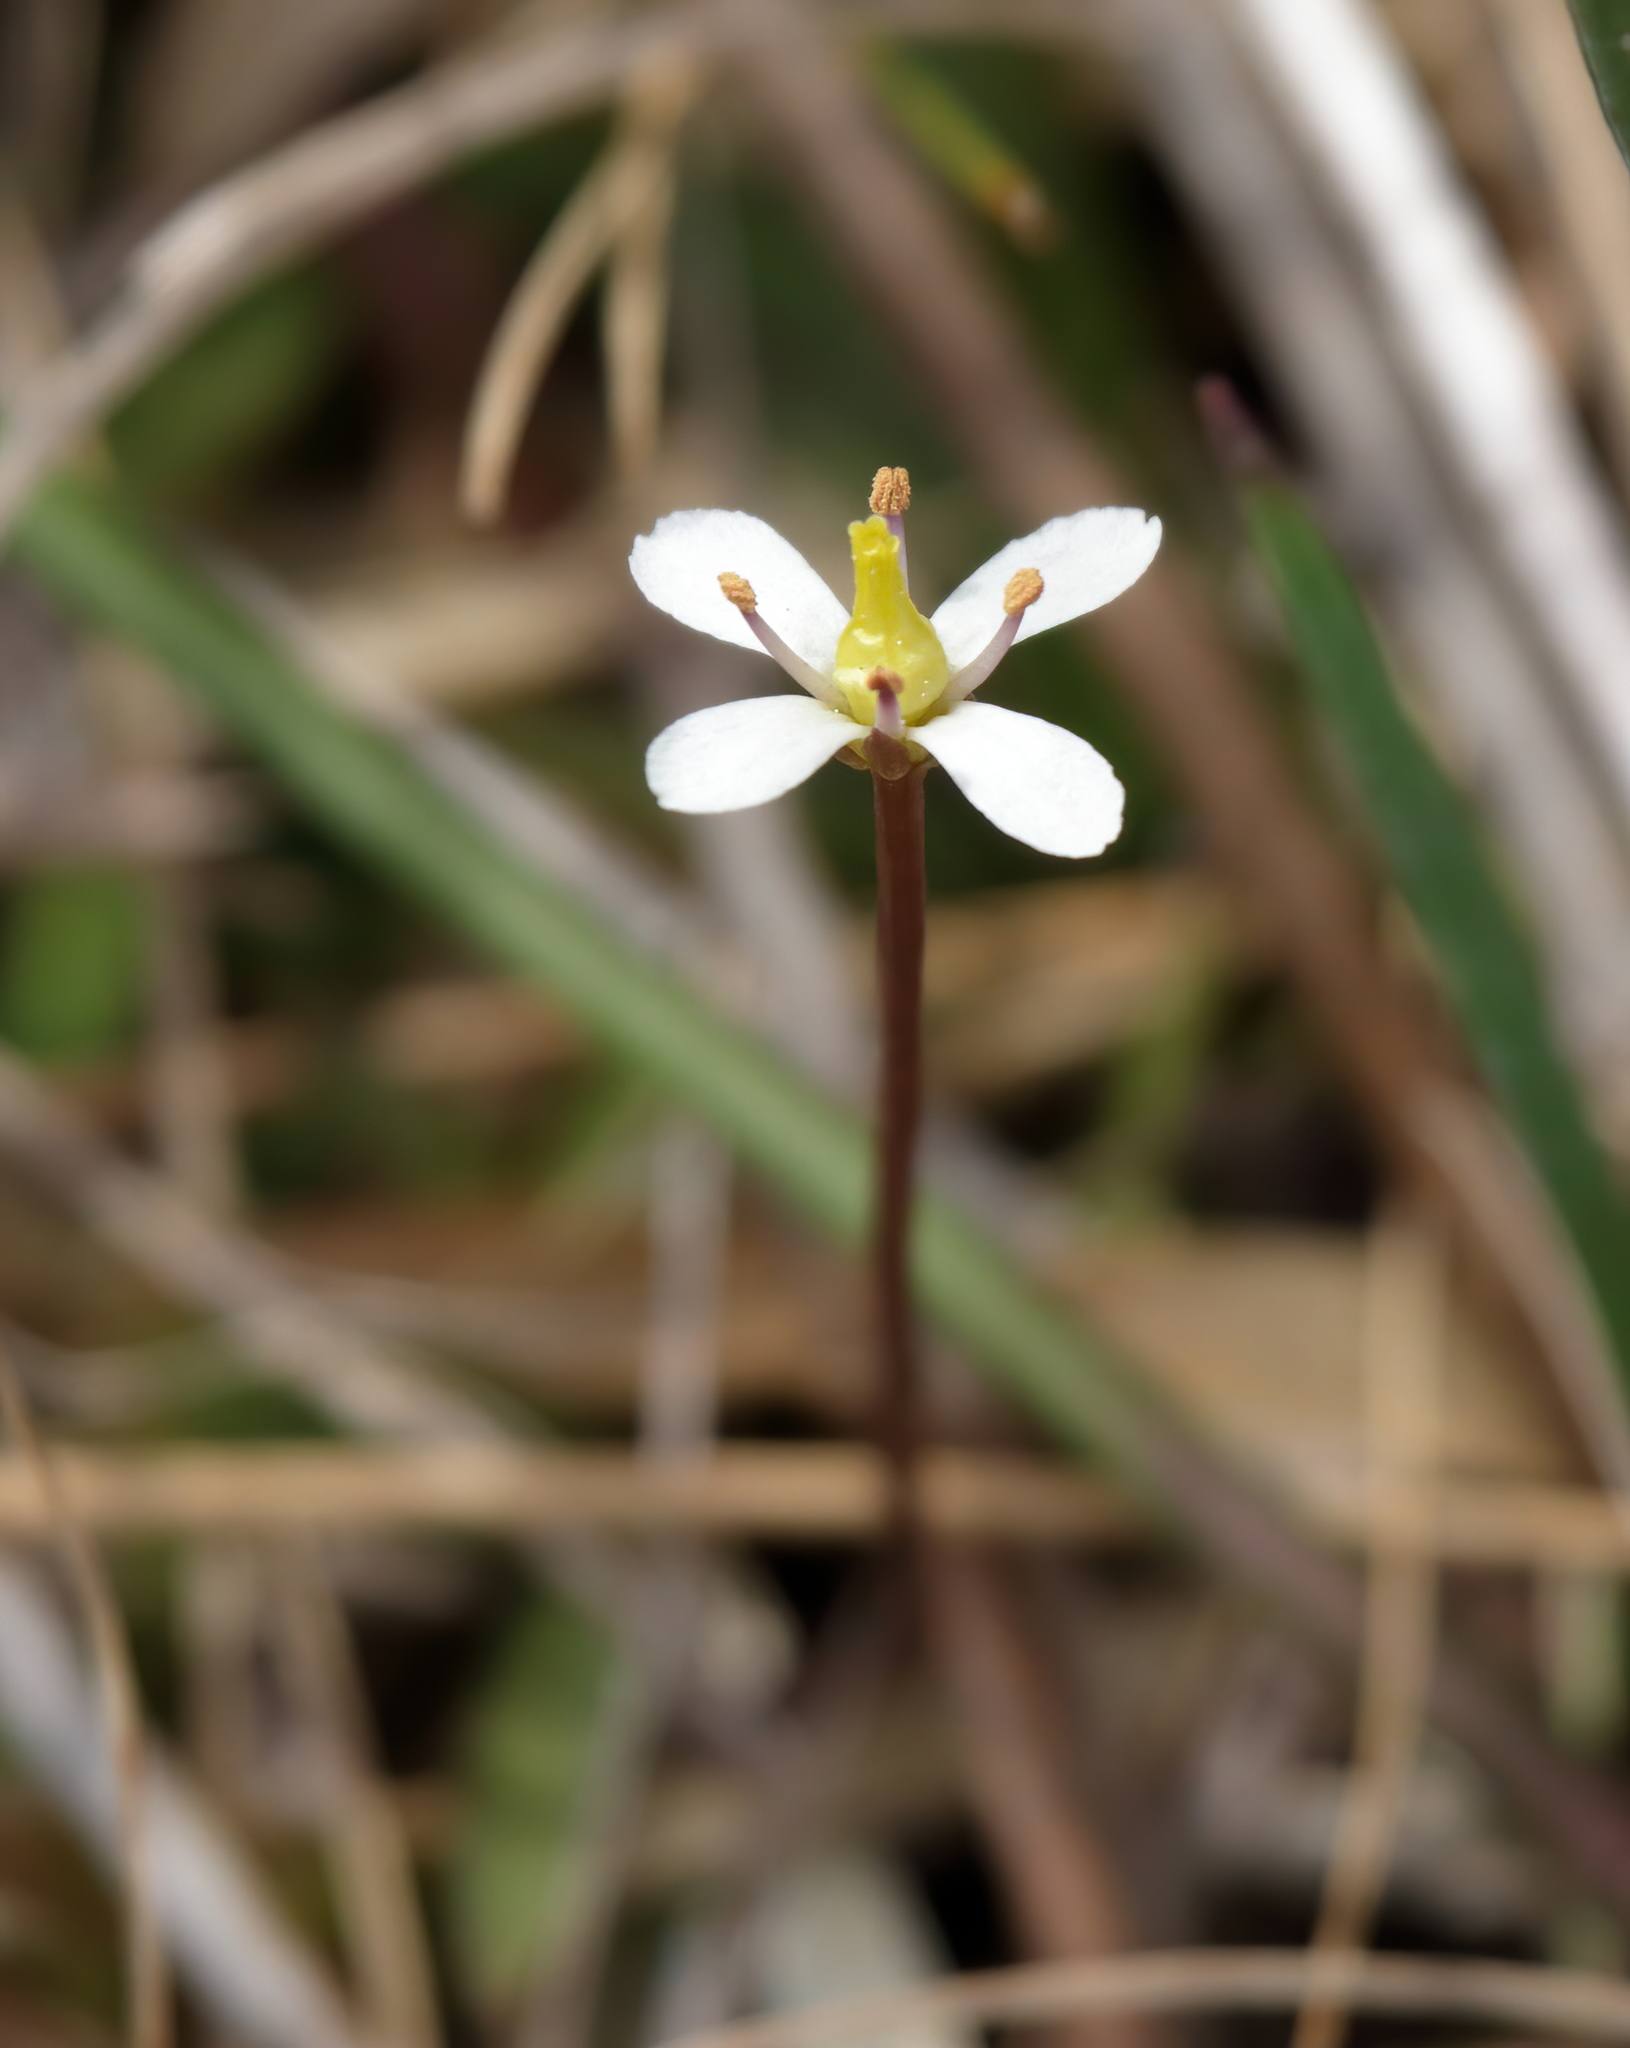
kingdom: Plantae
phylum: Tracheophyta
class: Magnoliopsida
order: Gentianales
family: Gentianaceae
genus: Bartonia
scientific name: Bartonia verna
